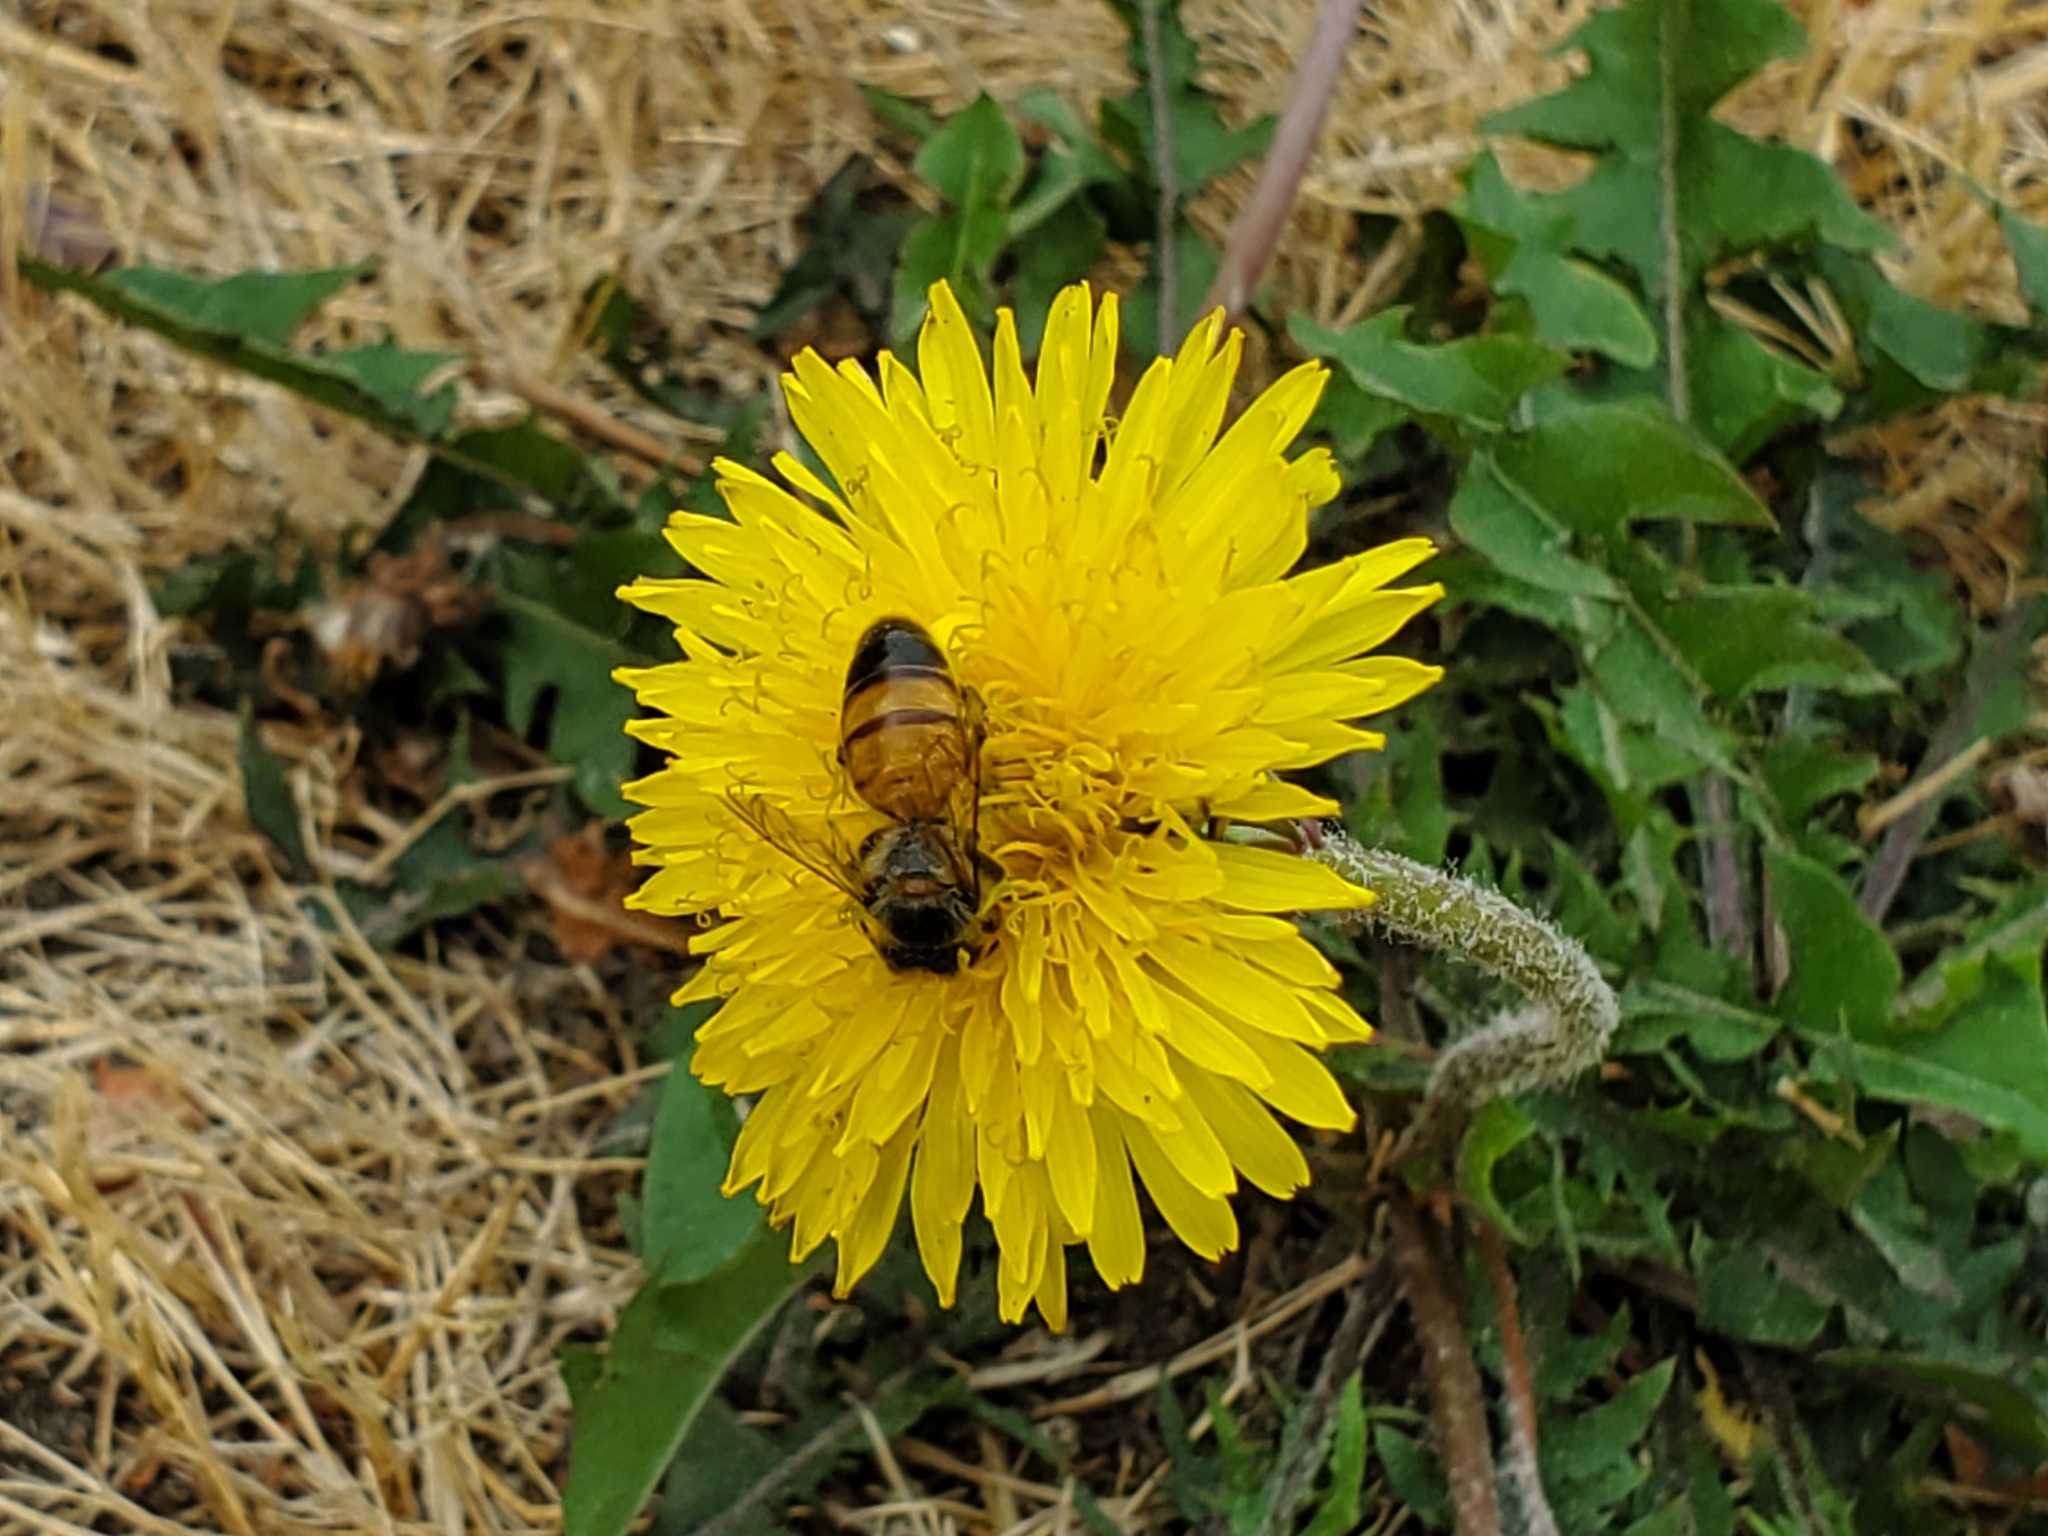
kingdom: Animalia
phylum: Arthropoda
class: Insecta
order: Hymenoptera
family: Apidae
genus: Apis
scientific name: Apis mellifera
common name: Honey bee
